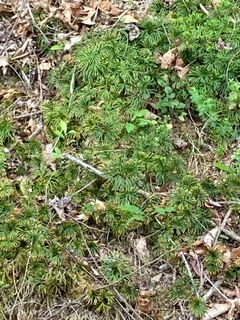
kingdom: Plantae
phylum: Tracheophyta
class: Lycopodiopsida
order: Lycopodiales
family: Lycopodiaceae
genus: Diphasiastrum
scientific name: Diphasiastrum digitatum
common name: Southern running-pine
